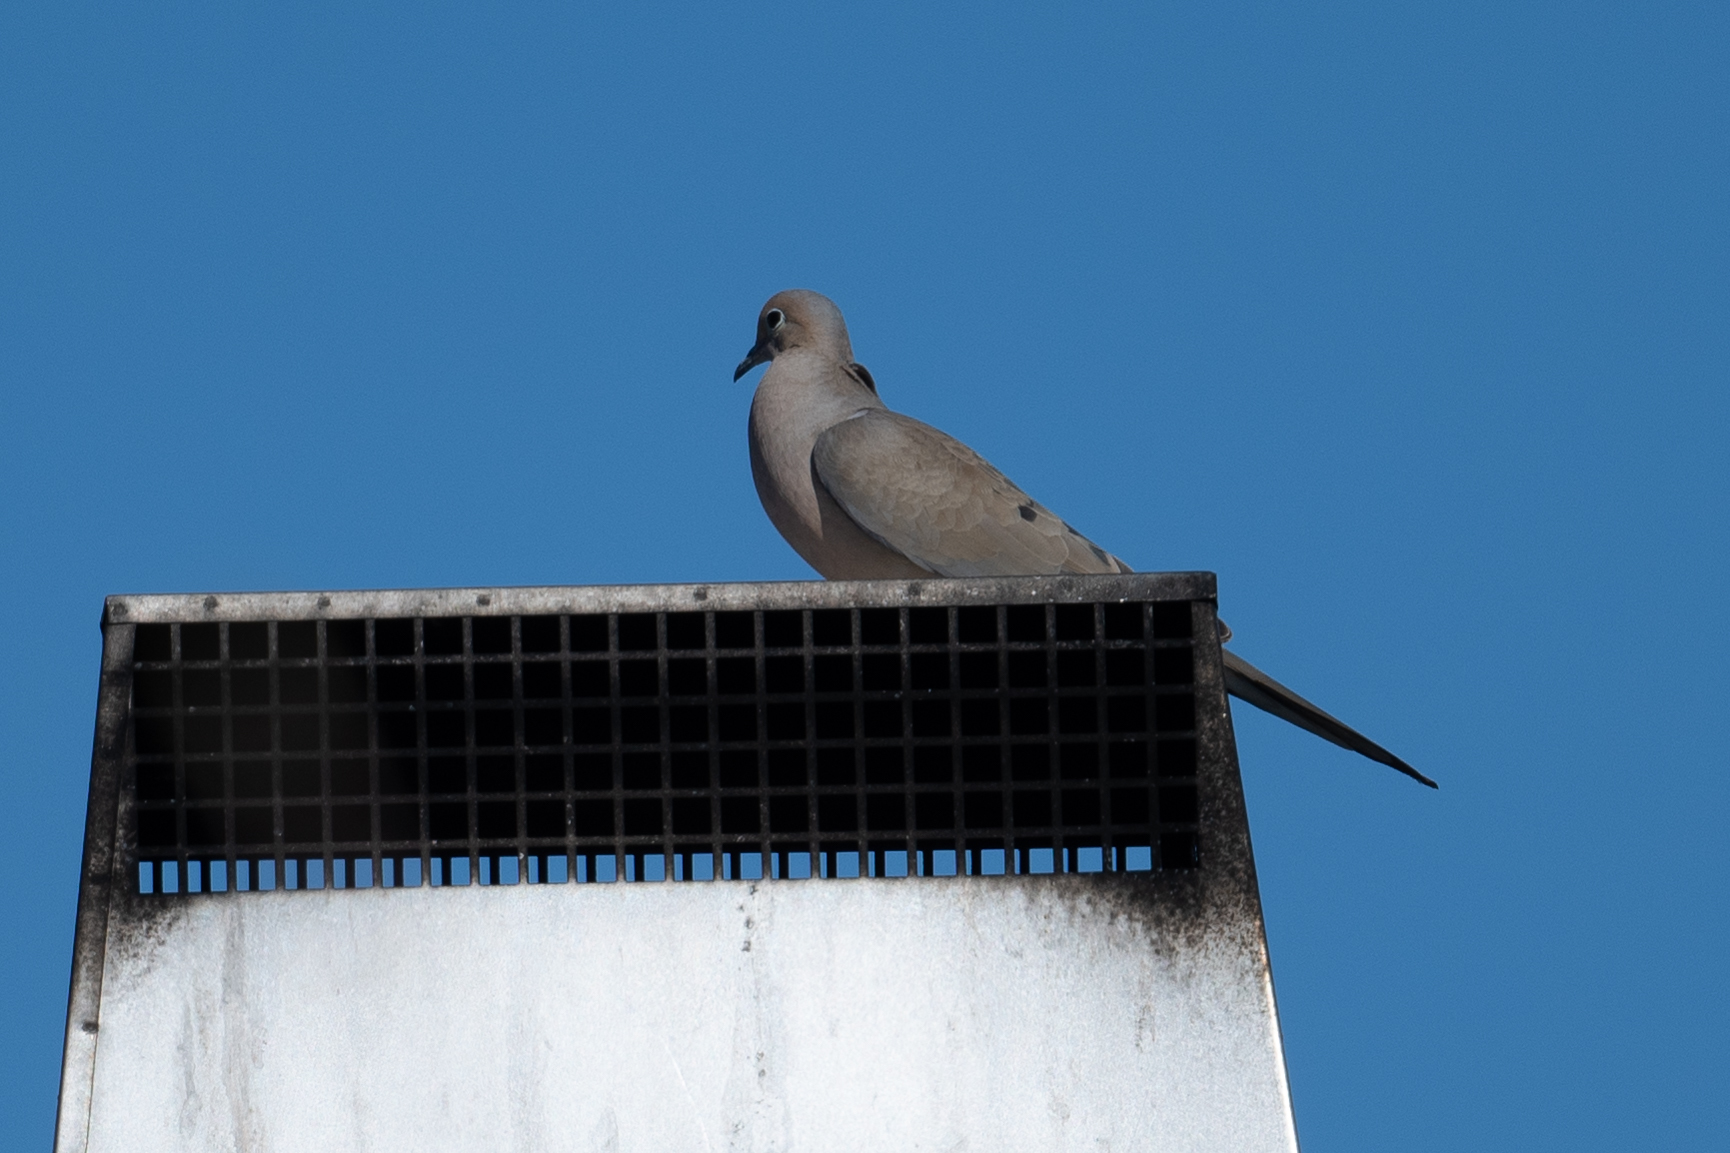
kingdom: Animalia
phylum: Chordata
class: Aves
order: Columbiformes
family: Columbidae
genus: Zenaida
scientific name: Zenaida macroura
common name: Mourning dove
